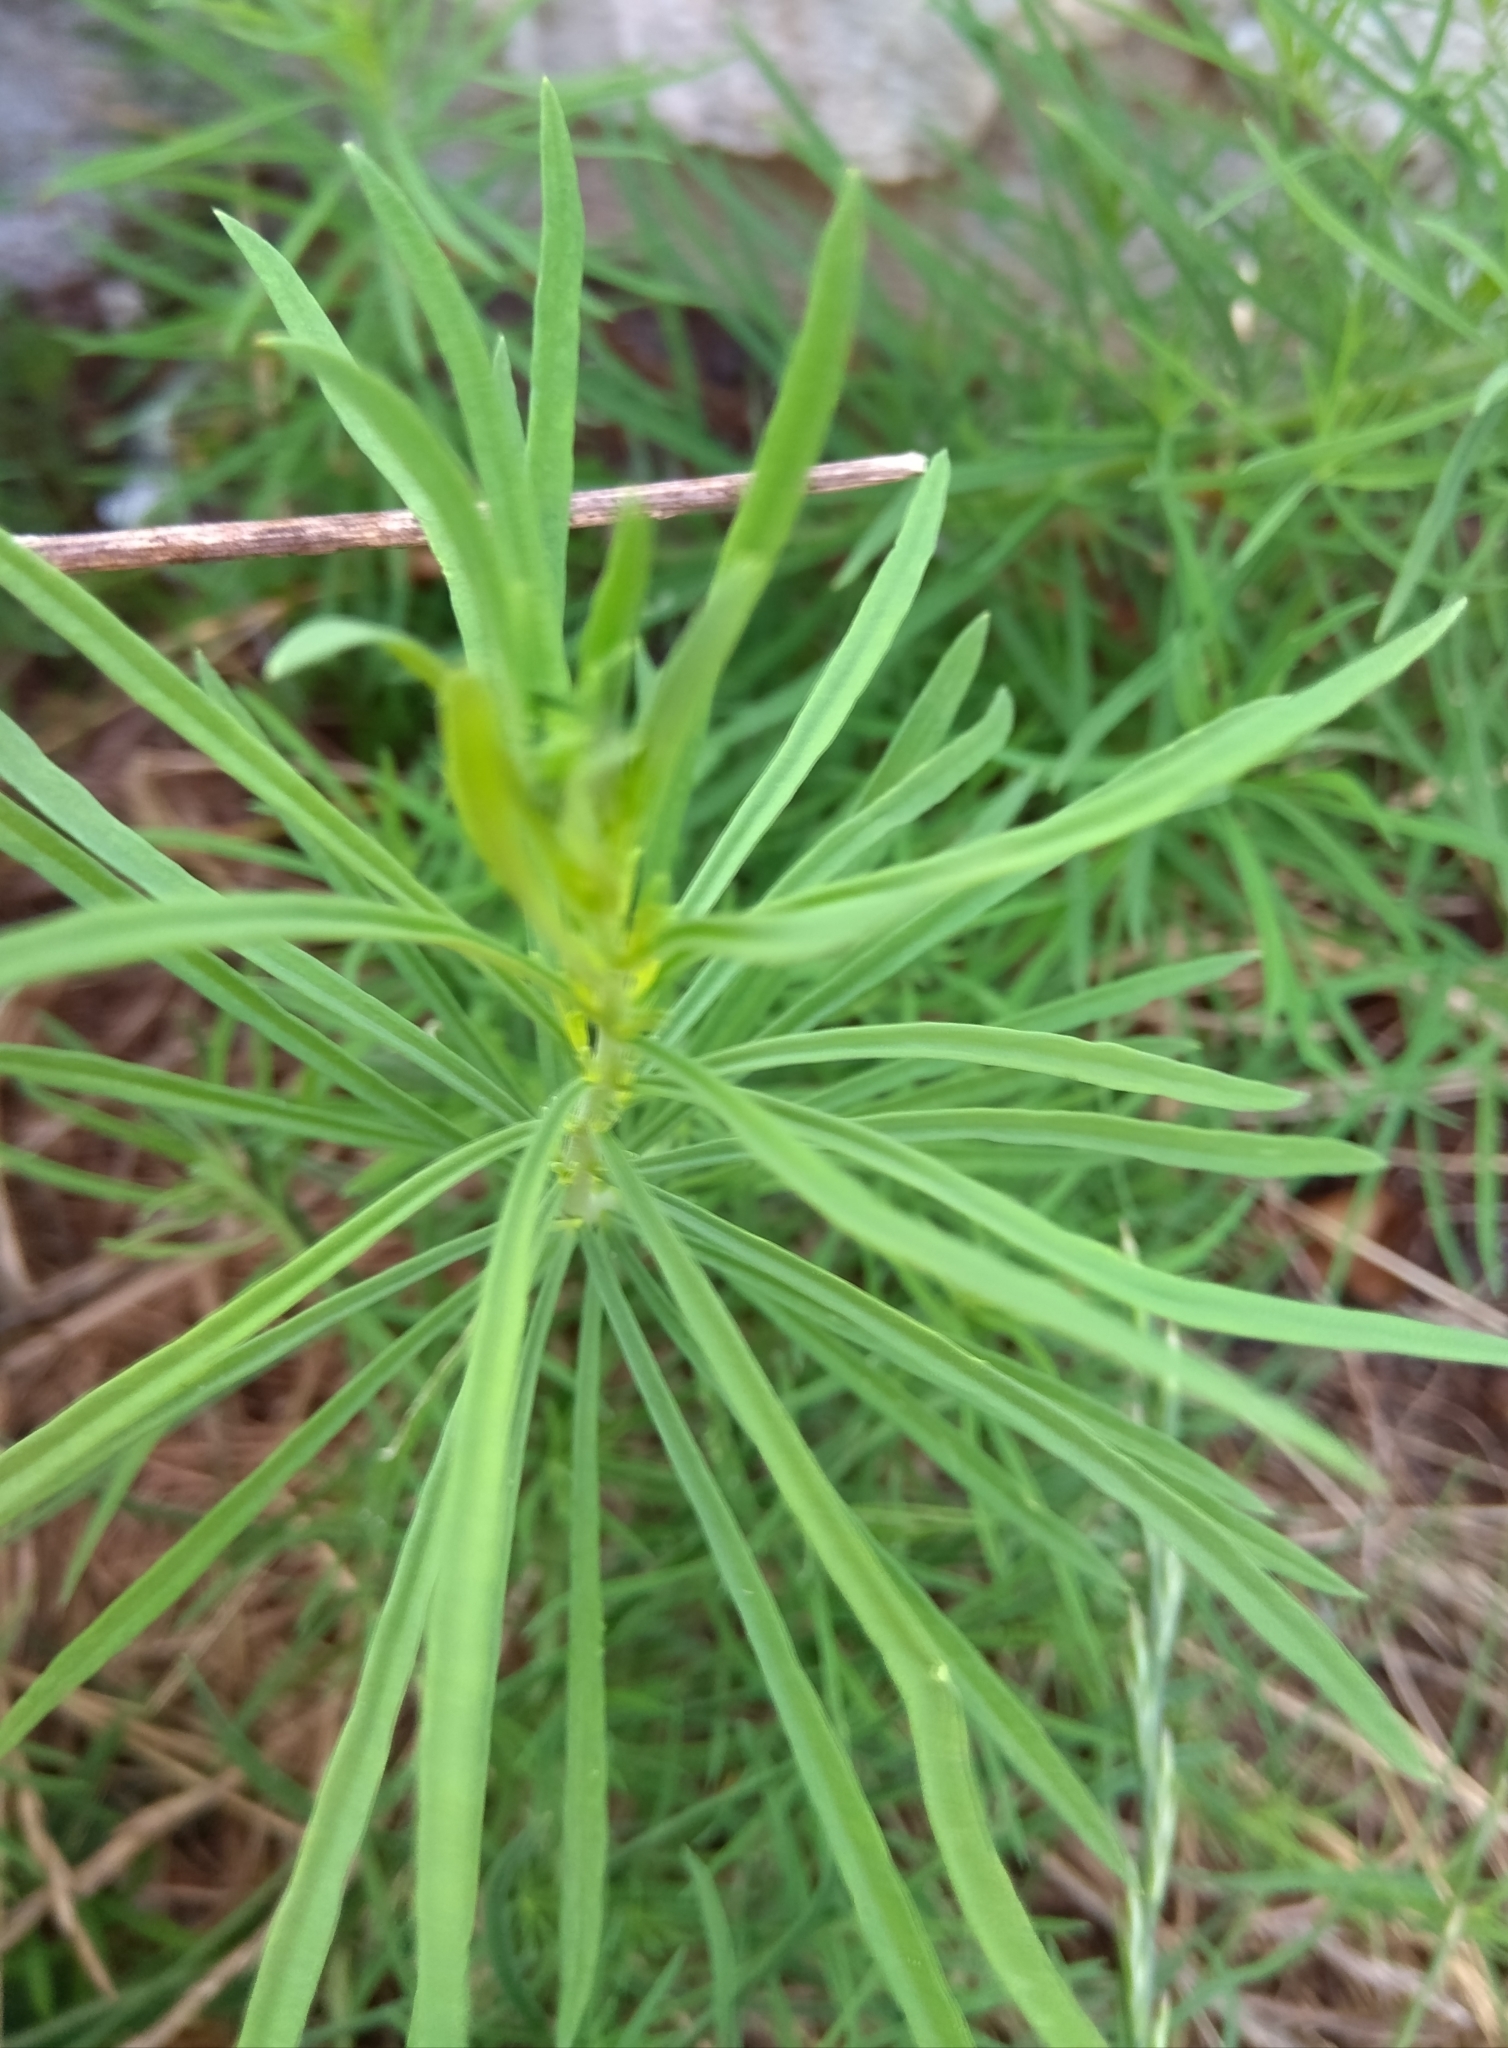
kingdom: Plantae
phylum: Tracheophyta
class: Magnoliopsida
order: Lamiales
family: Plantaginaceae
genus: Linaria
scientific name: Linaria vulgaris
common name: Butter and eggs
